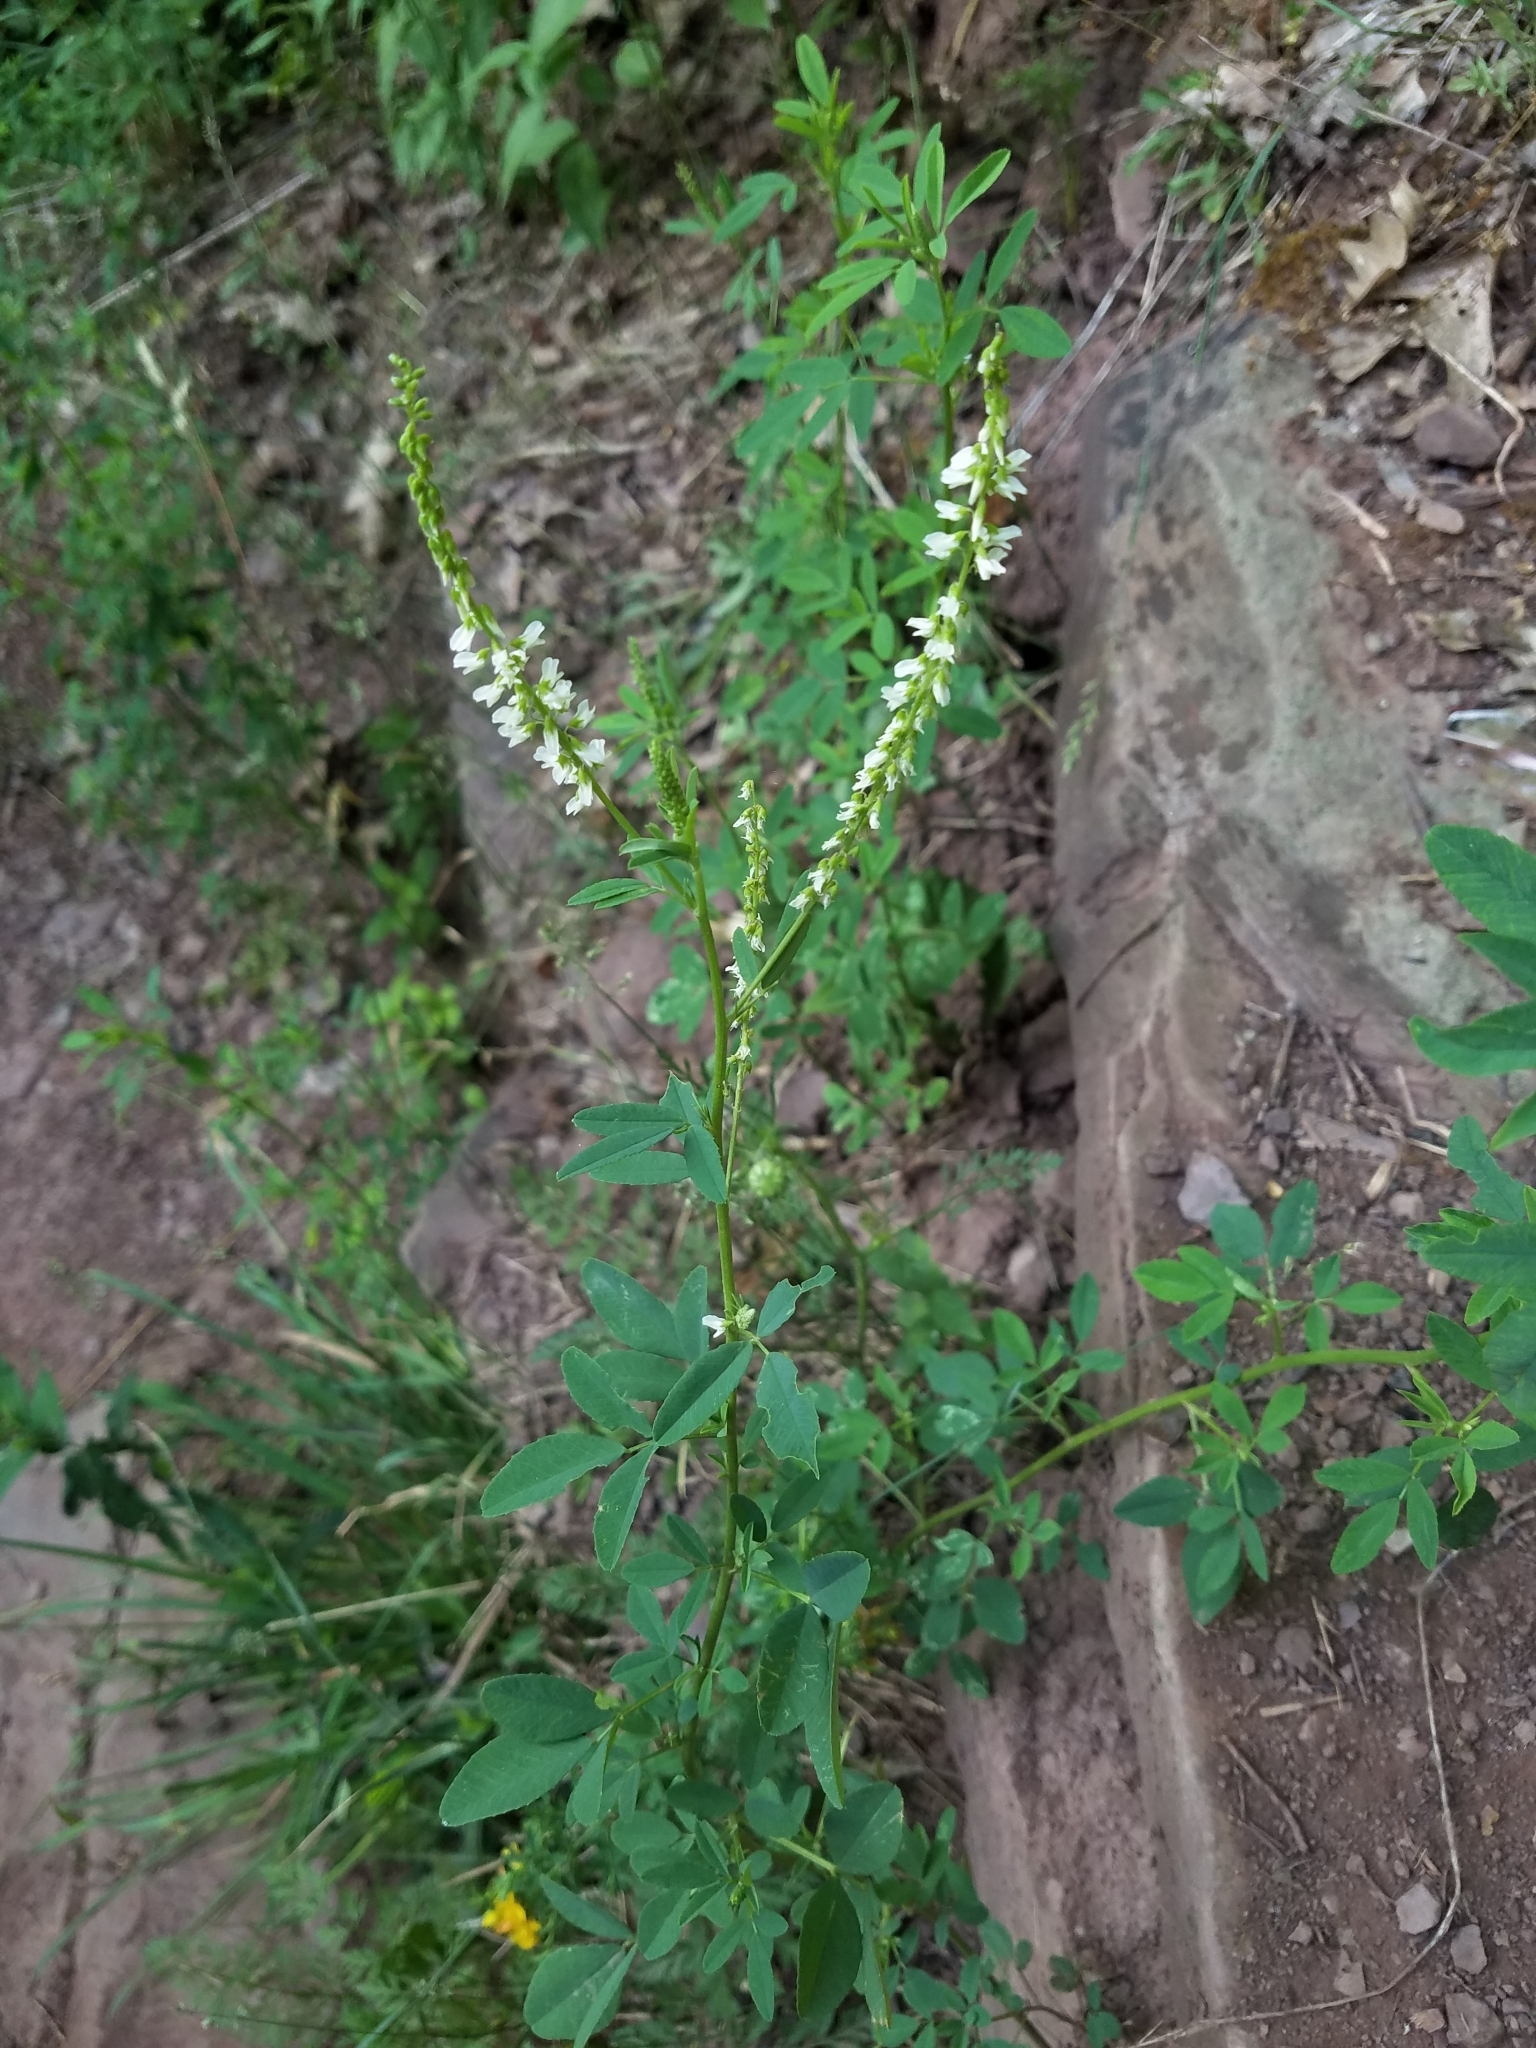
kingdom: Plantae
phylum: Tracheophyta
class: Magnoliopsida
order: Fabales
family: Fabaceae
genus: Melilotus
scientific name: Melilotus albus
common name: White melilot
